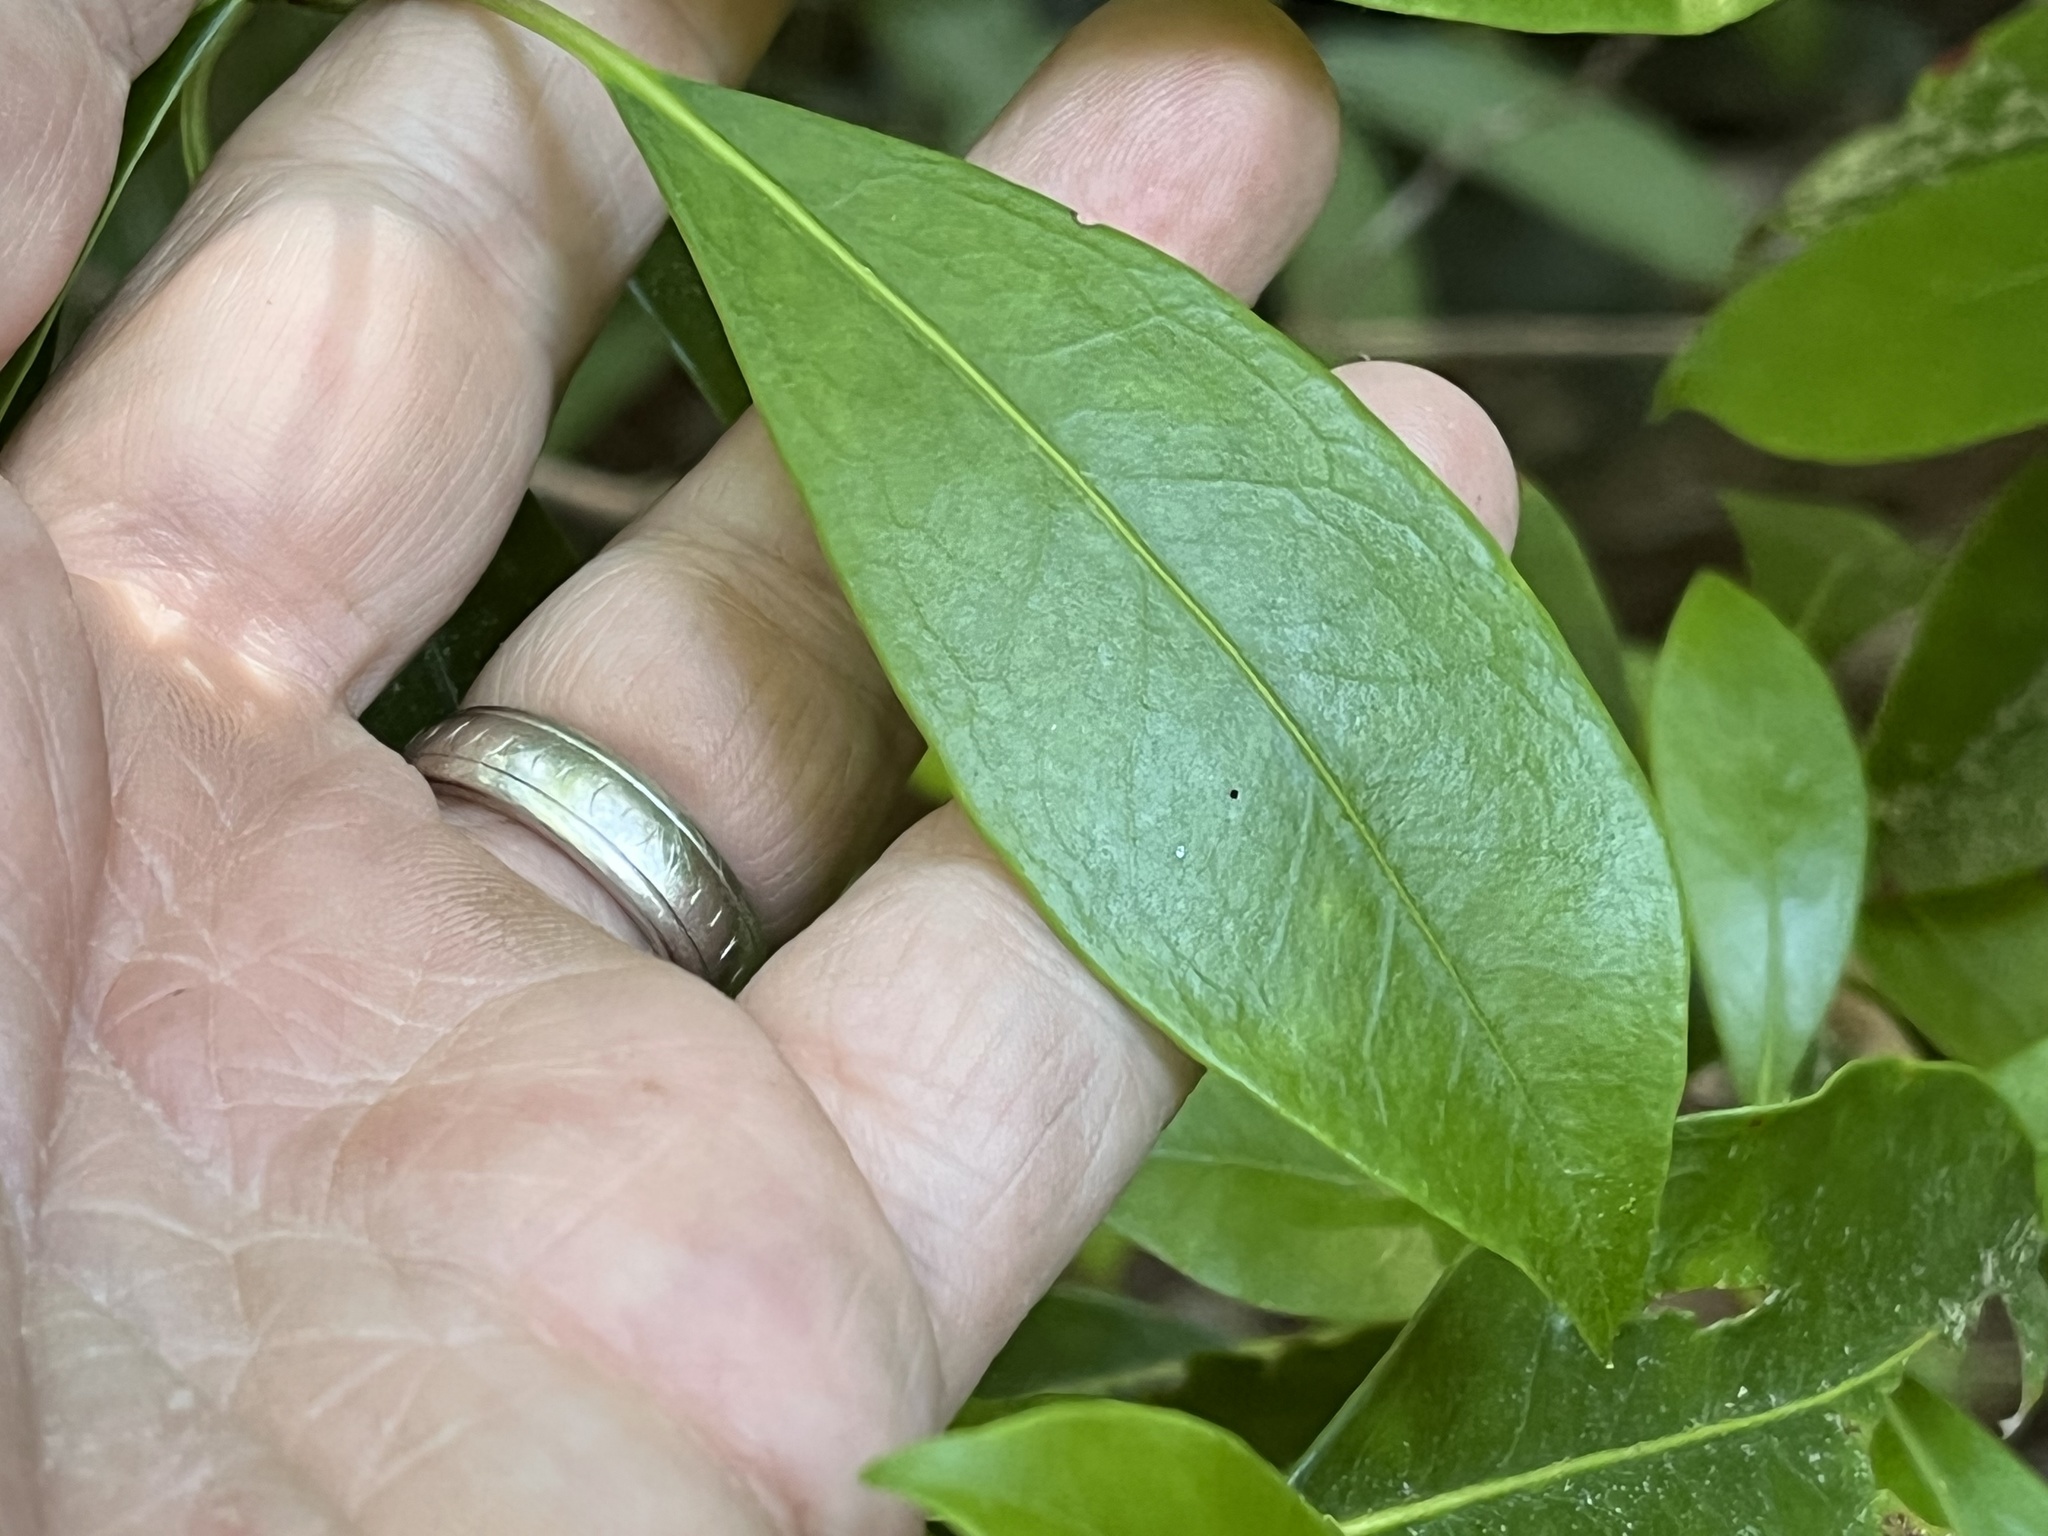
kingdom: Plantae
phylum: Tracheophyta
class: Magnoliopsida
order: Ericales
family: Ericaceae
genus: Kalmia
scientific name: Kalmia latifolia
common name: Mountain-laurel
